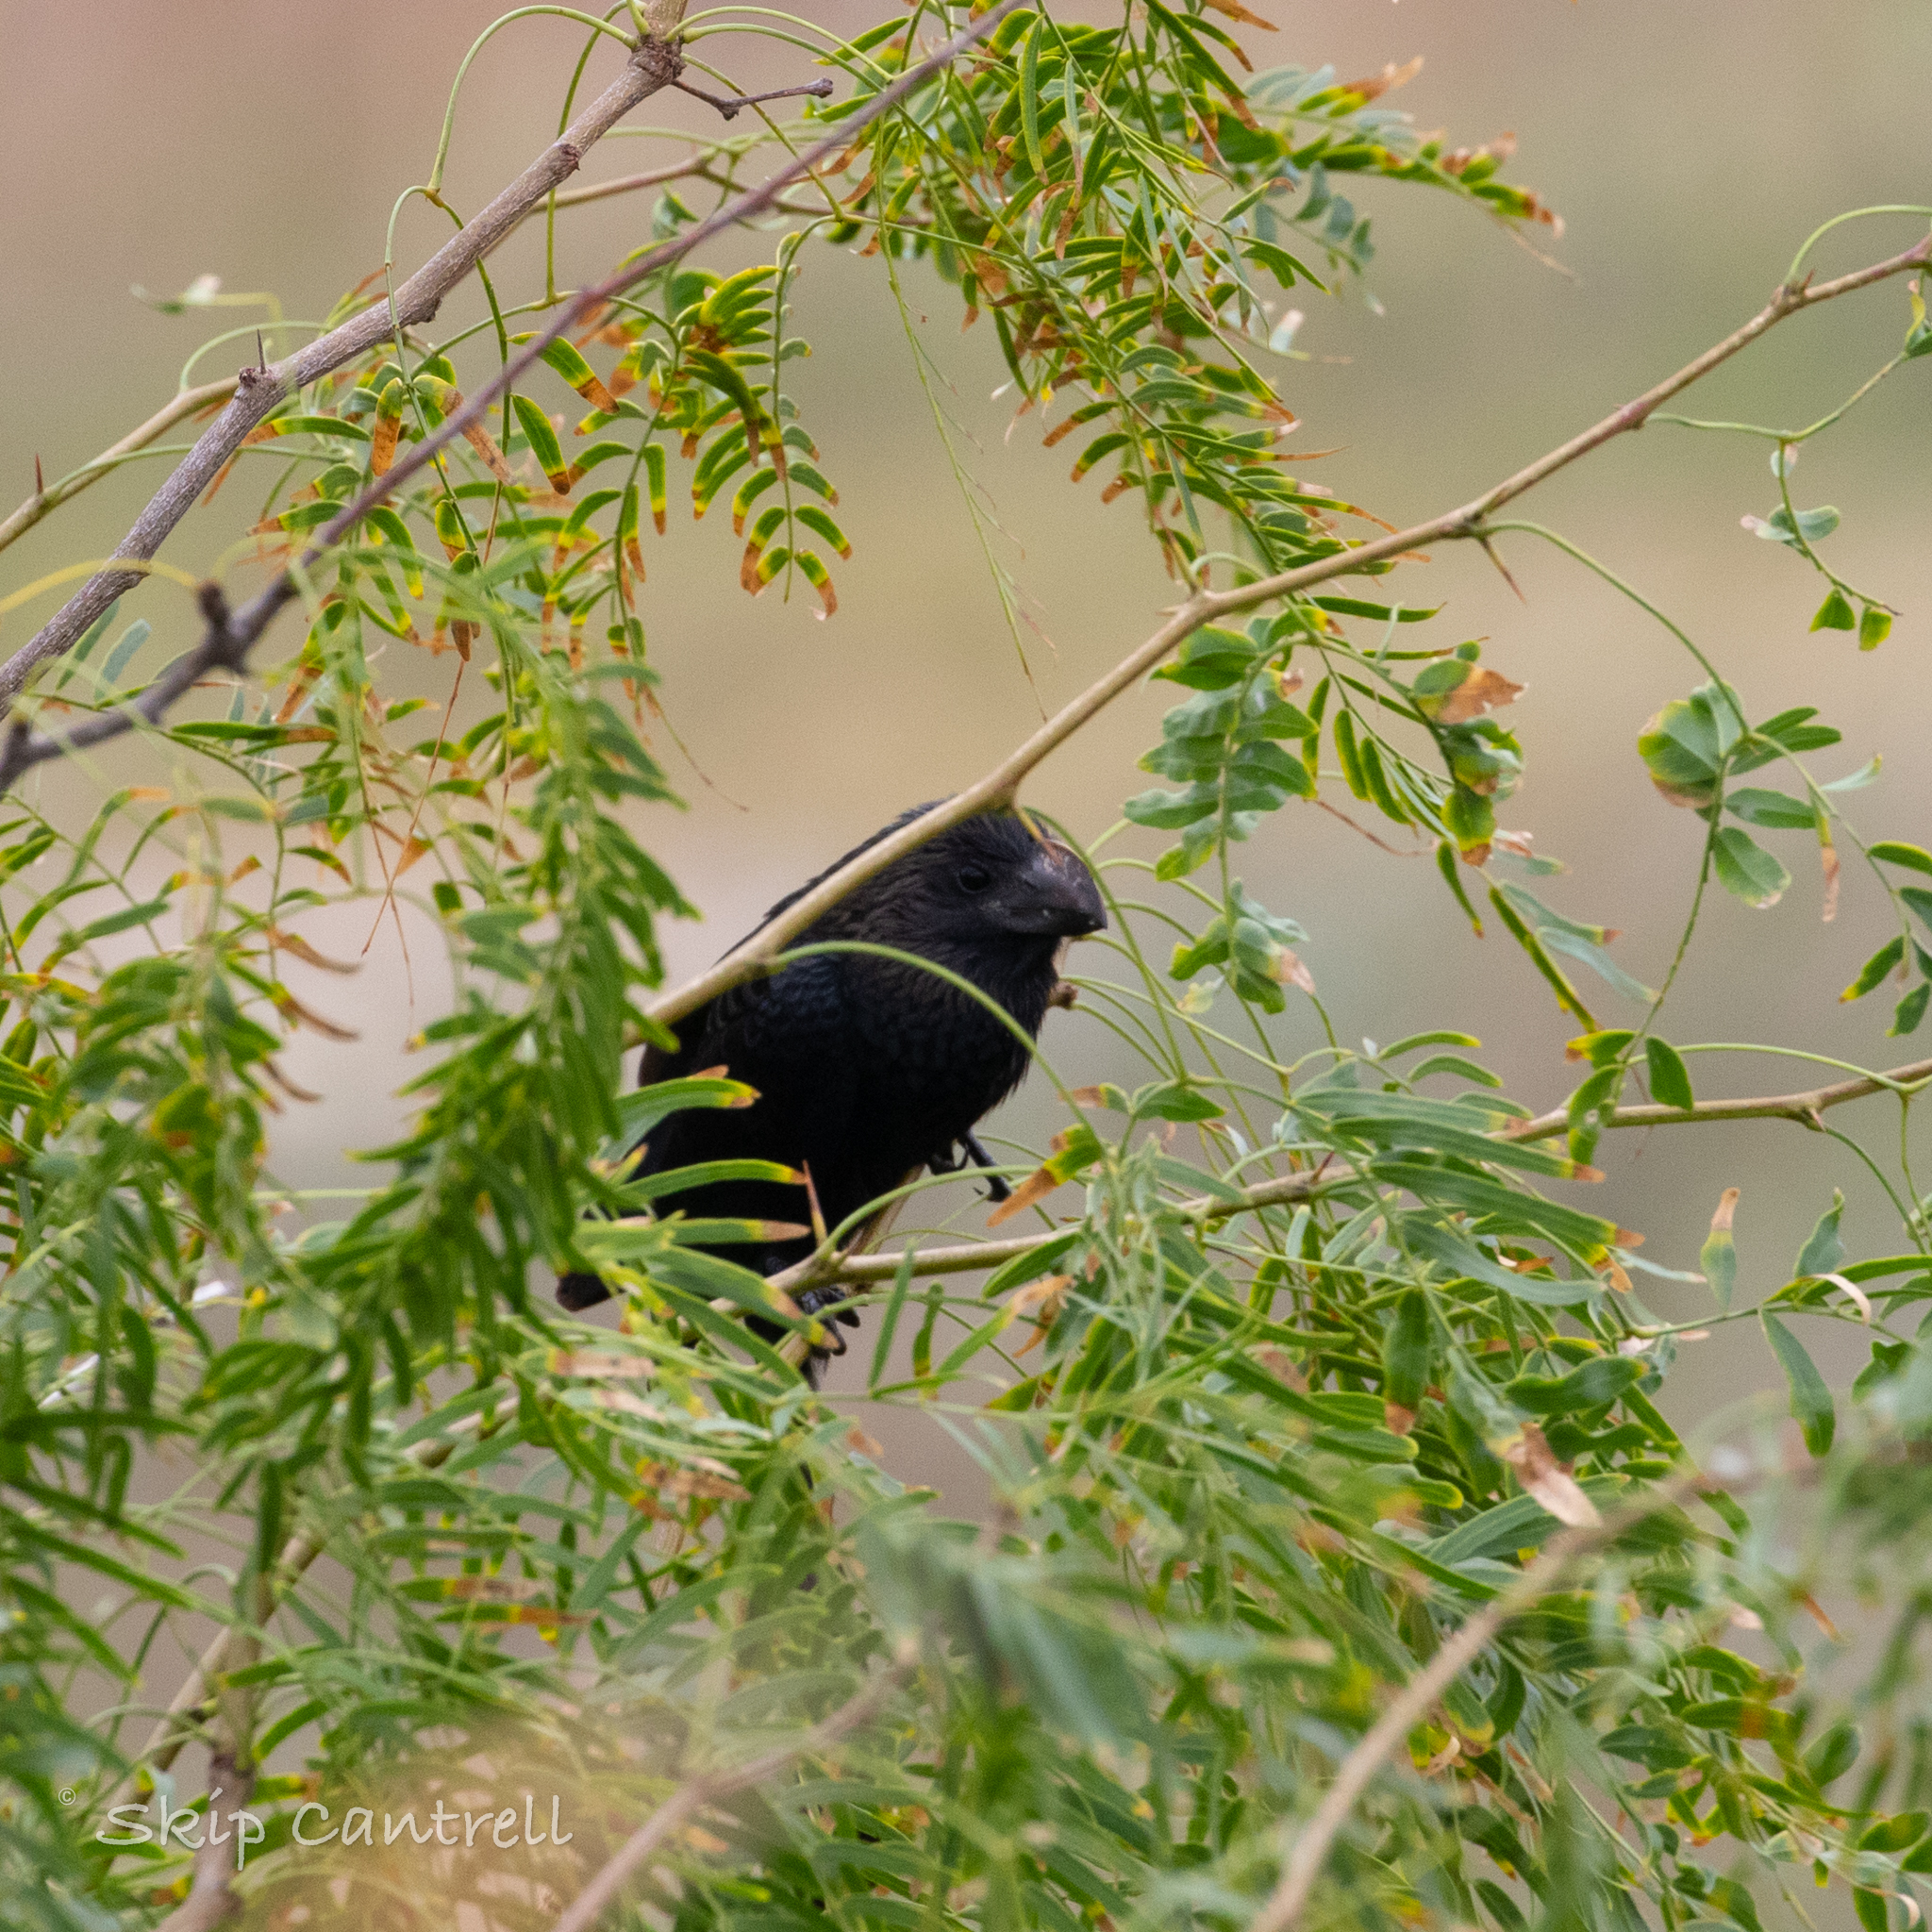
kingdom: Animalia
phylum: Chordata
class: Aves
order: Cuculiformes
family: Cuculidae
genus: Crotophaga
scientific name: Crotophaga ani
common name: Smooth-billed ani
